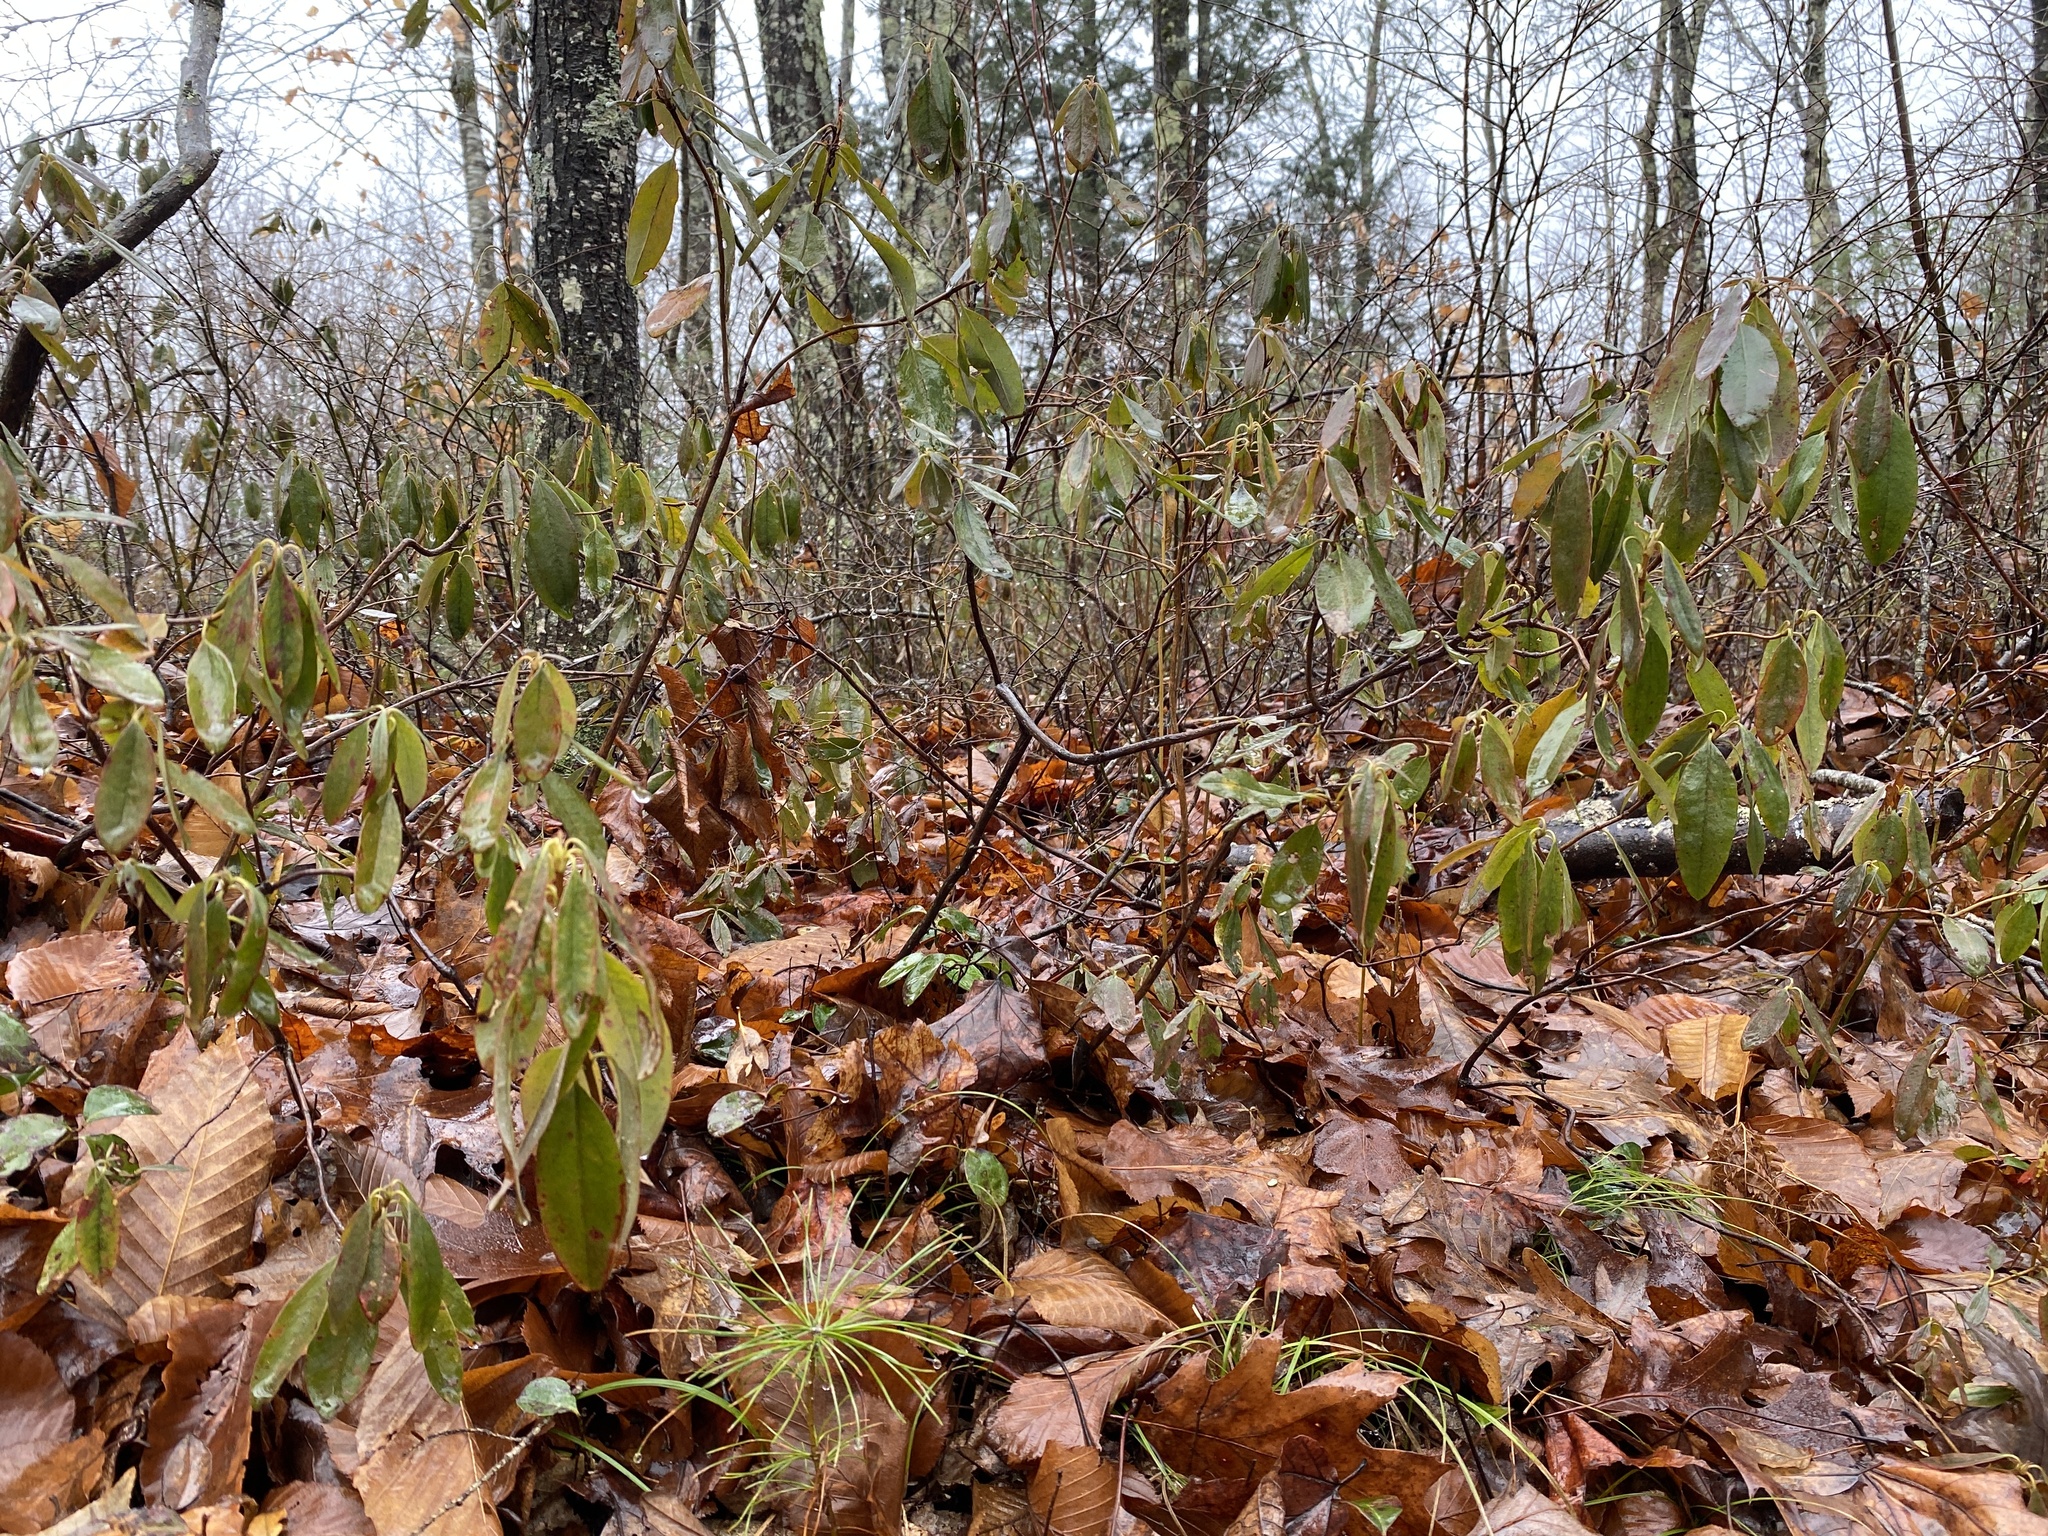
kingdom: Plantae
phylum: Tracheophyta
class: Magnoliopsida
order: Ericales
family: Ericaceae
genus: Kalmia
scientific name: Kalmia angustifolia
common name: Sheep-laurel
